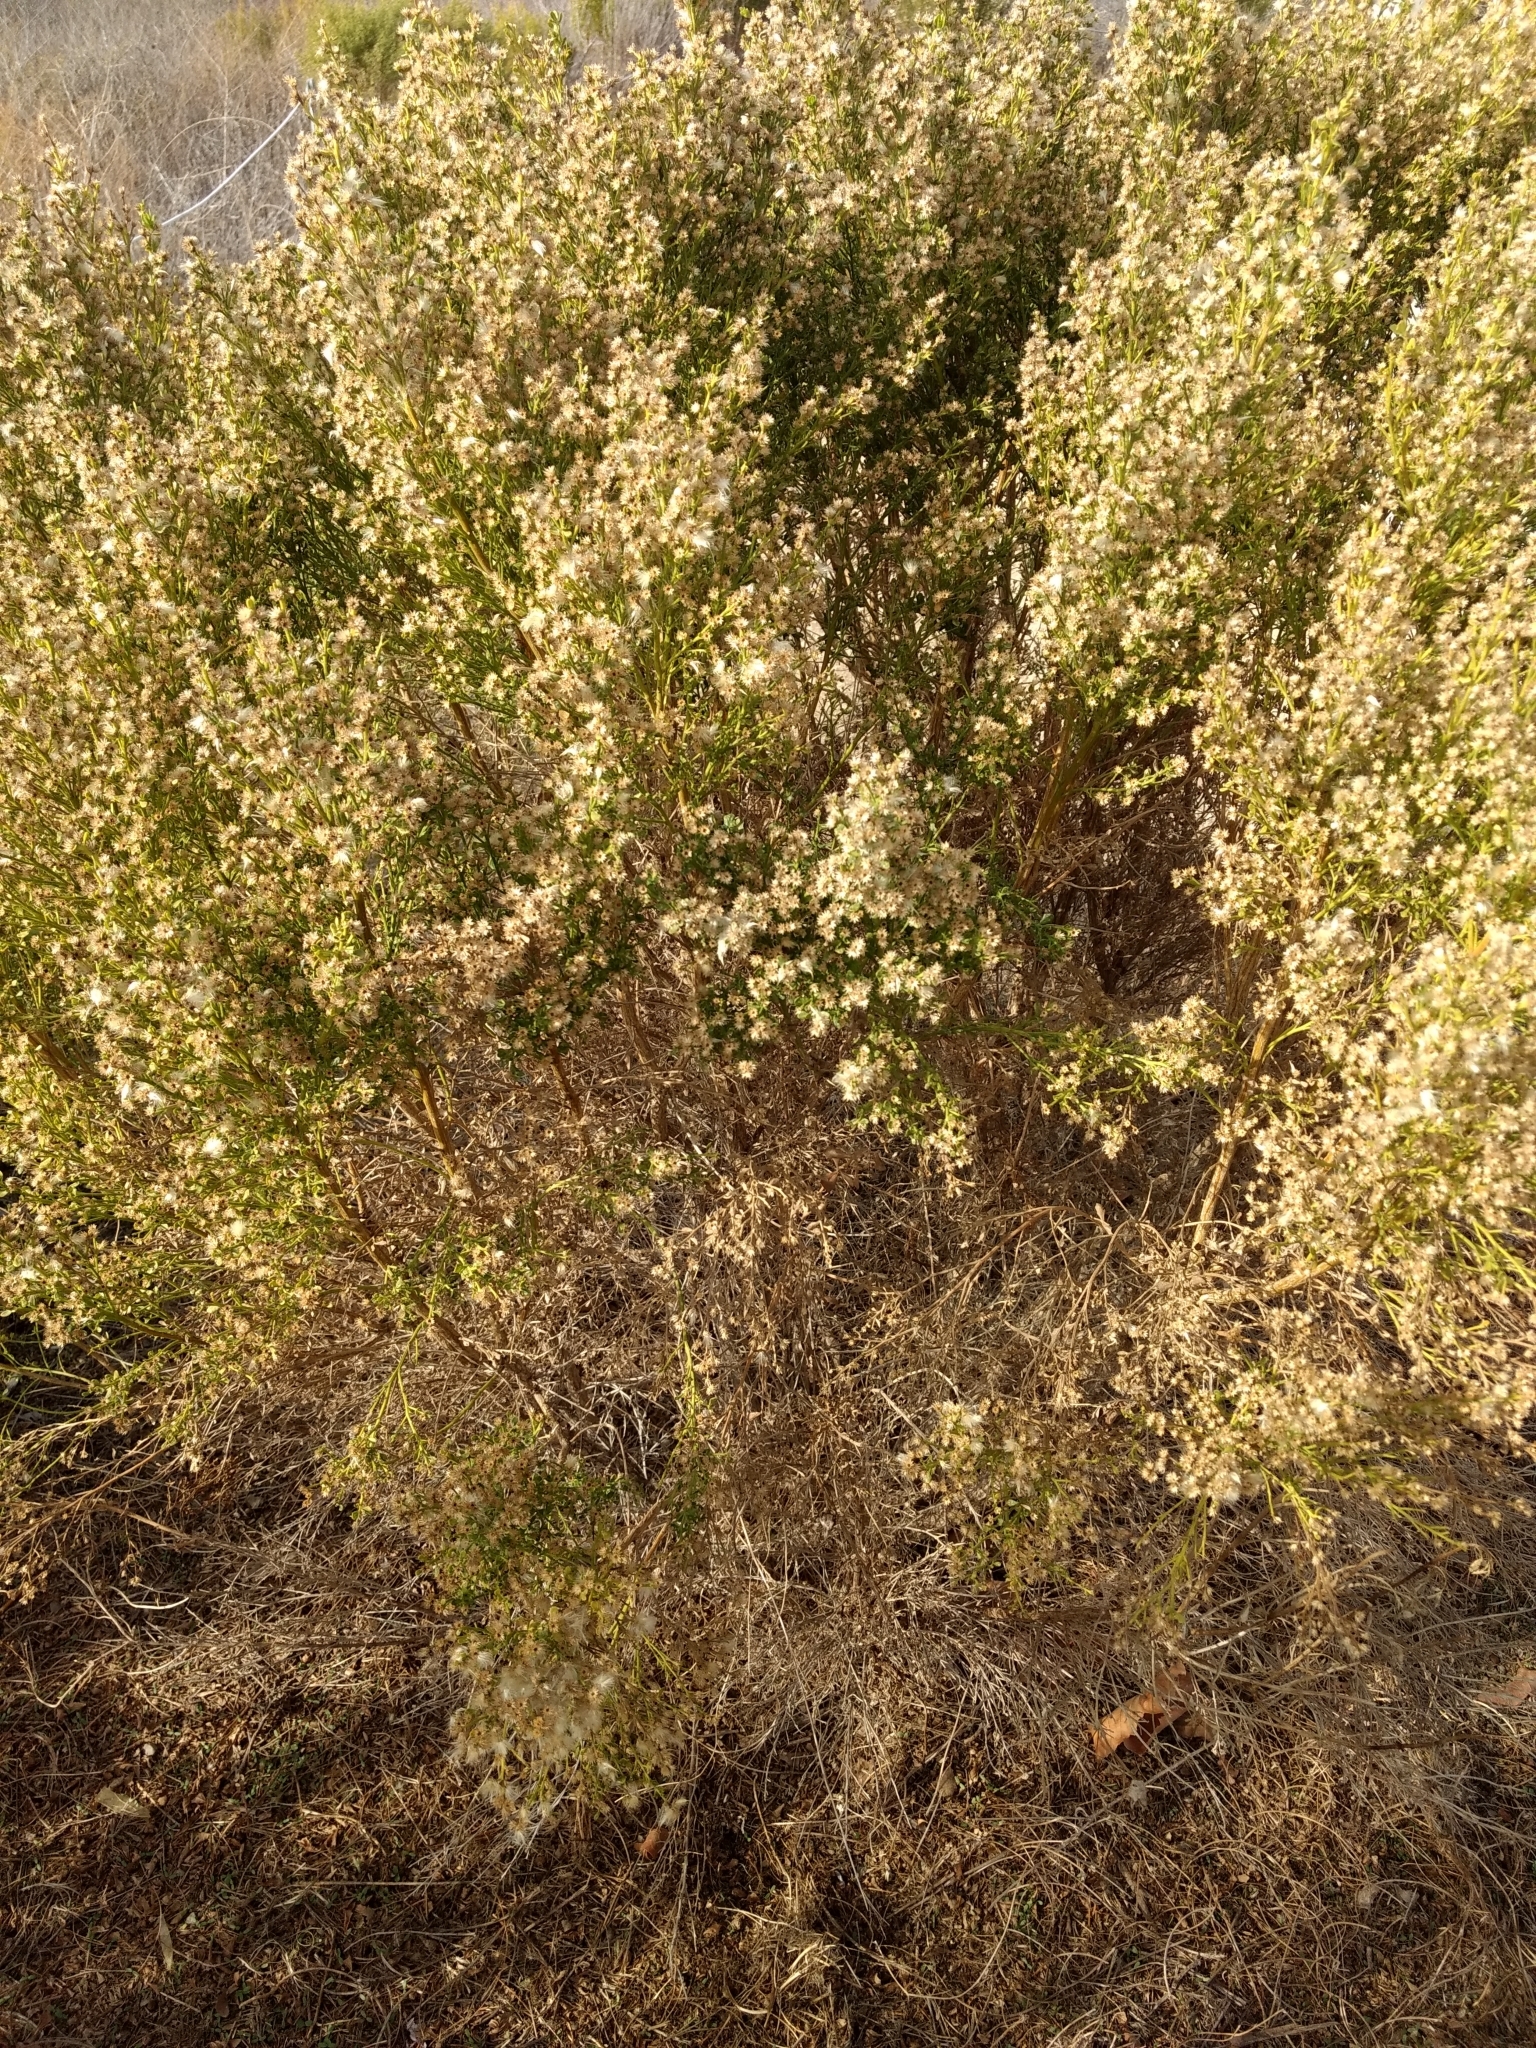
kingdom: Plantae
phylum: Tracheophyta
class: Magnoliopsida
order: Asterales
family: Asteraceae
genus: Baccharis
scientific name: Baccharis pilularis
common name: Coyotebrush
